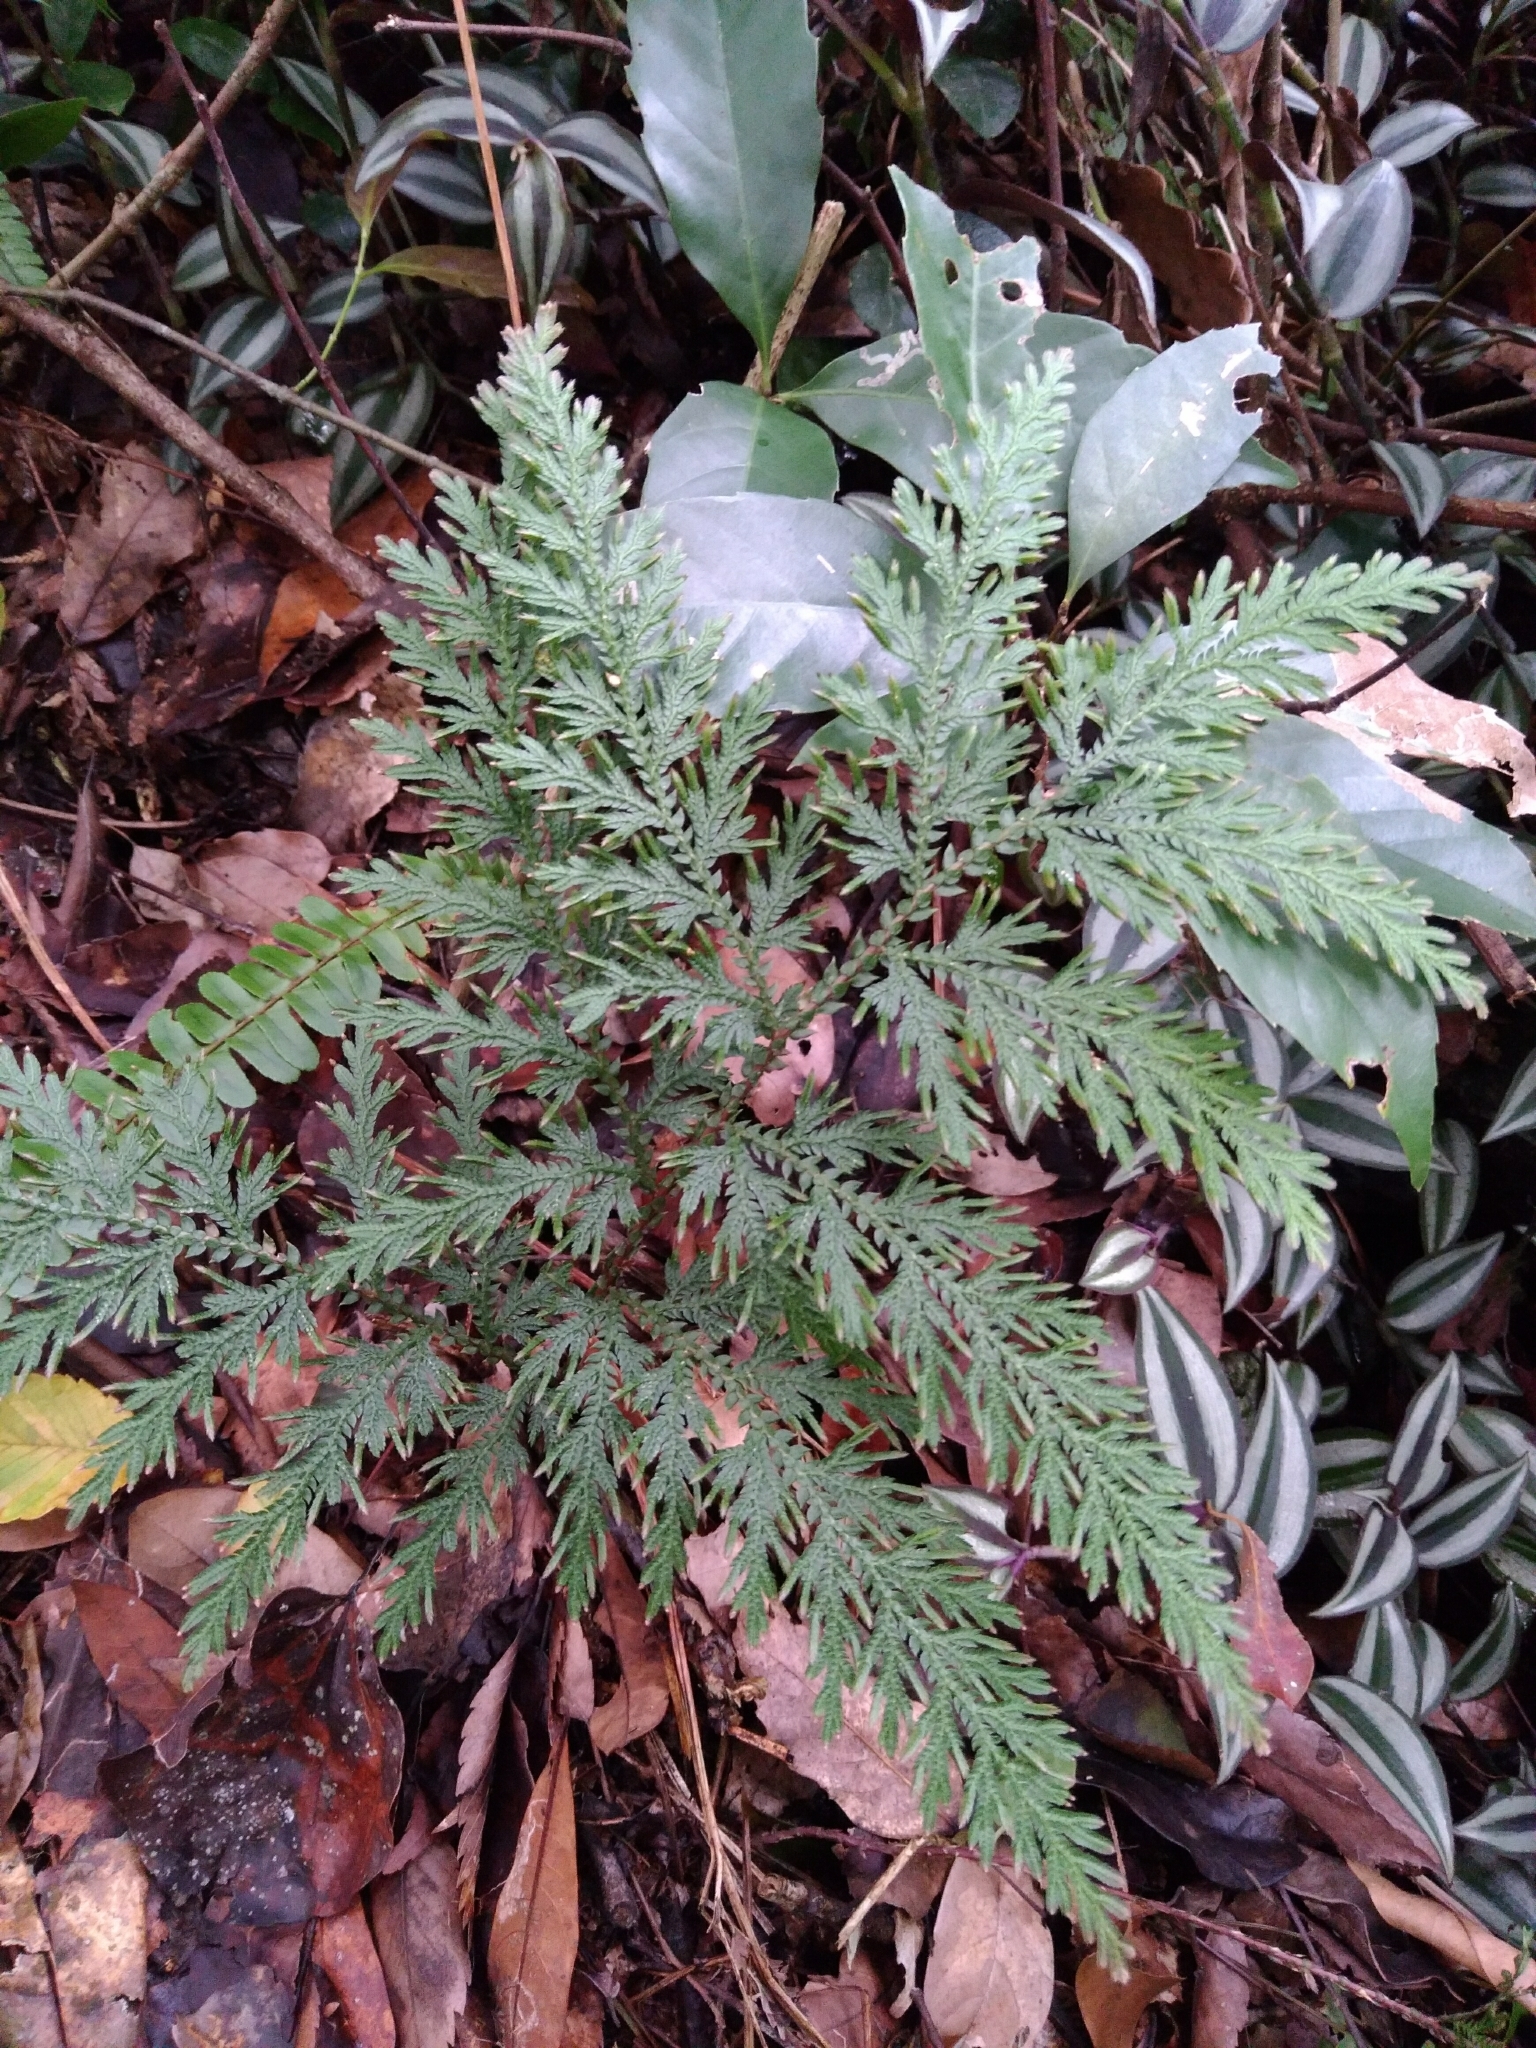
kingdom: Plantae
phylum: Tracheophyta
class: Lycopodiopsida
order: Selaginellales
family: Selaginellaceae
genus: Selaginella
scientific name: Selaginella moellendorffii
